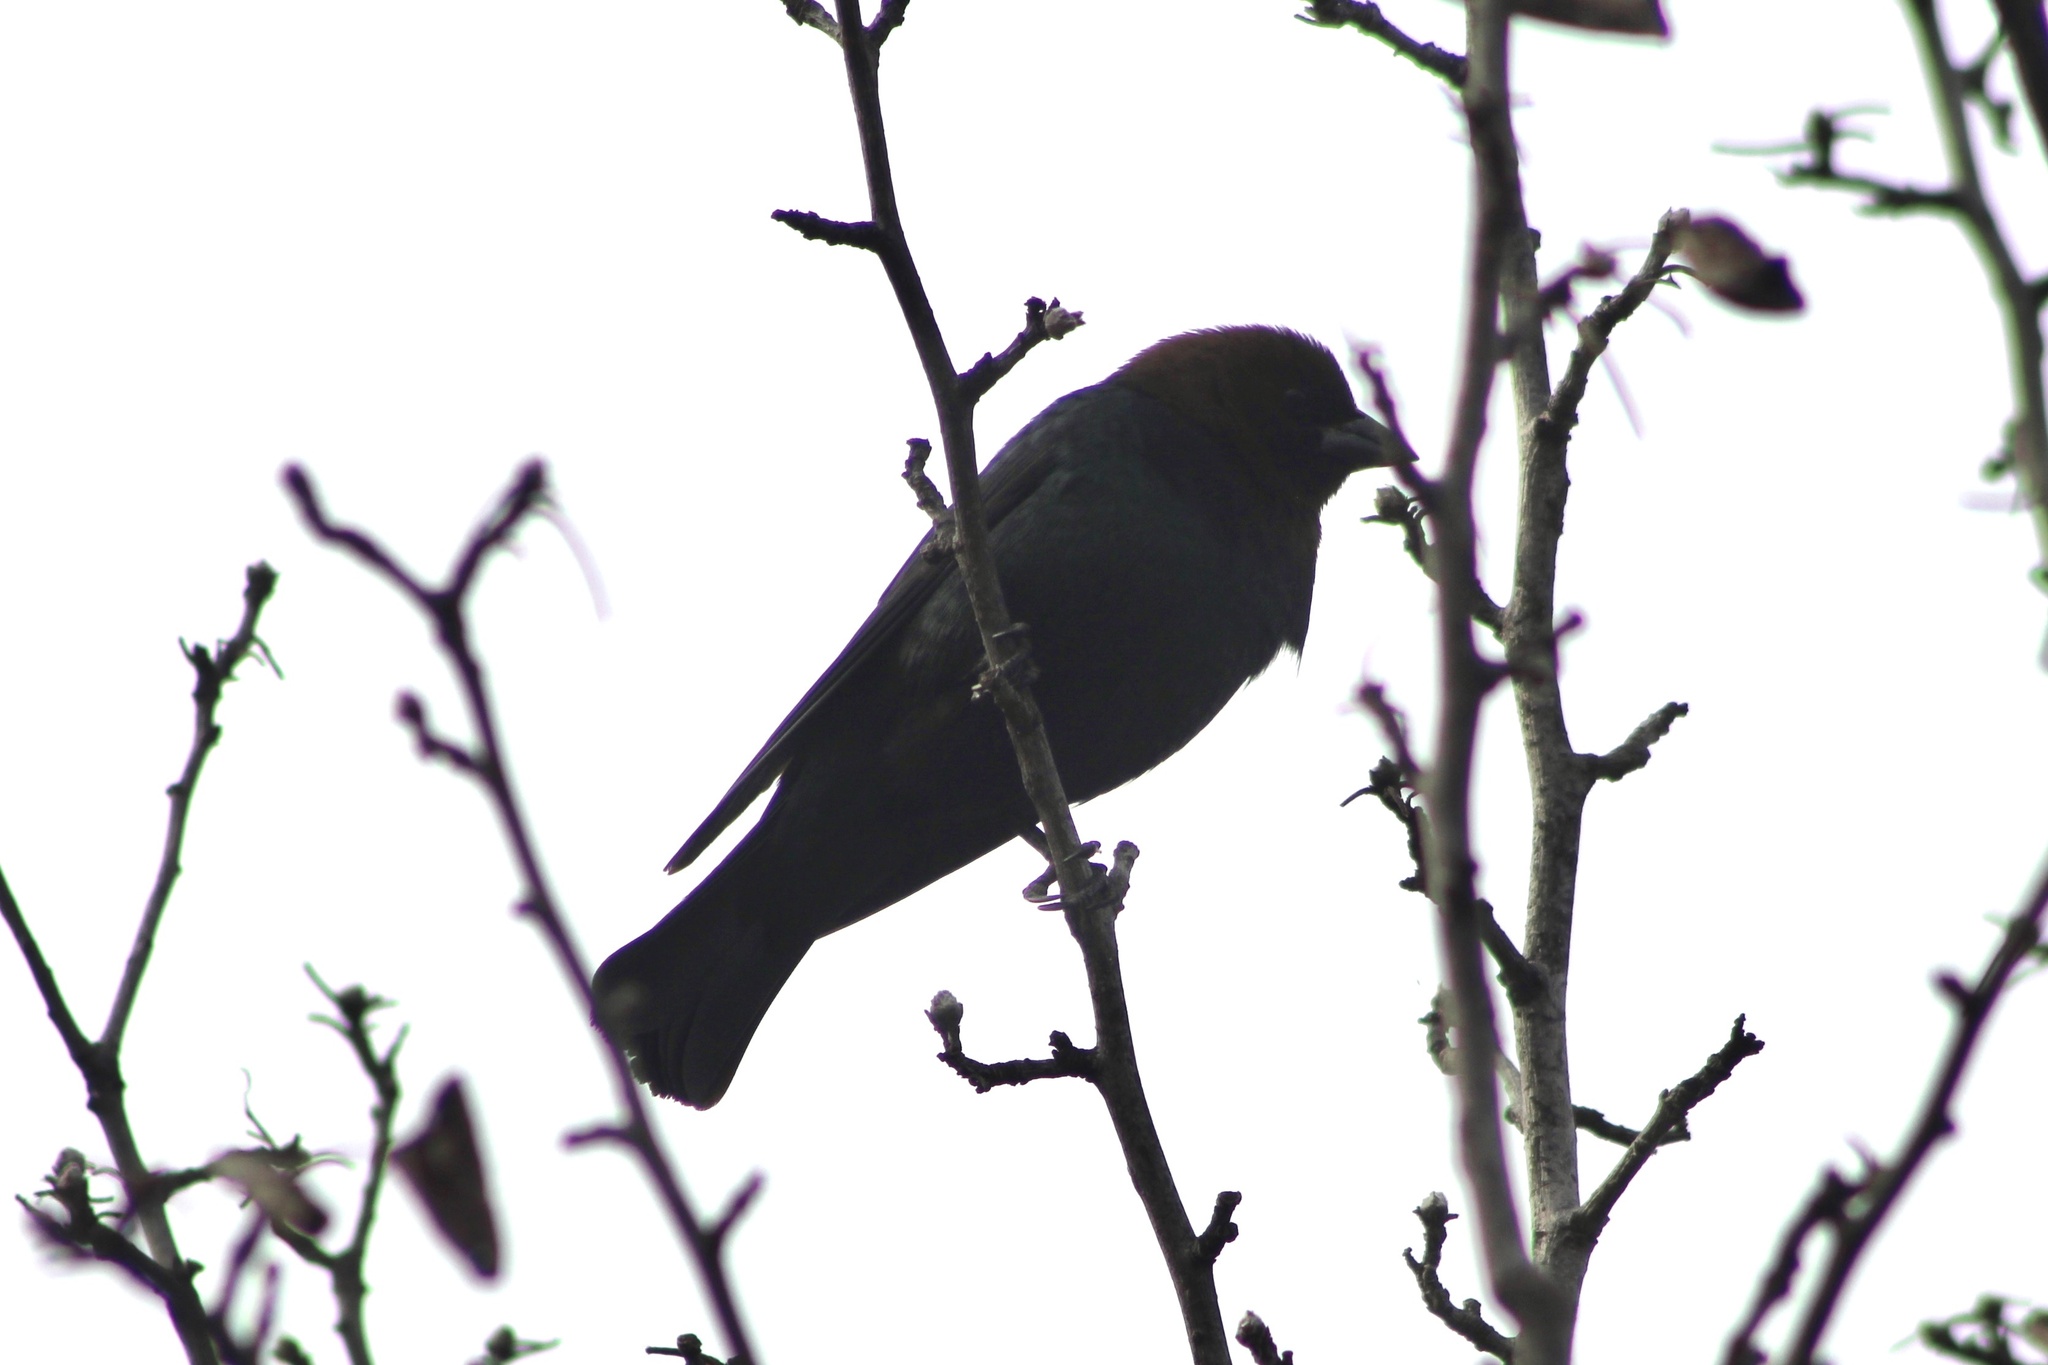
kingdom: Animalia
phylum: Chordata
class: Aves
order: Passeriformes
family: Icteridae
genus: Molothrus
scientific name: Molothrus ater
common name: Brown-headed cowbird
